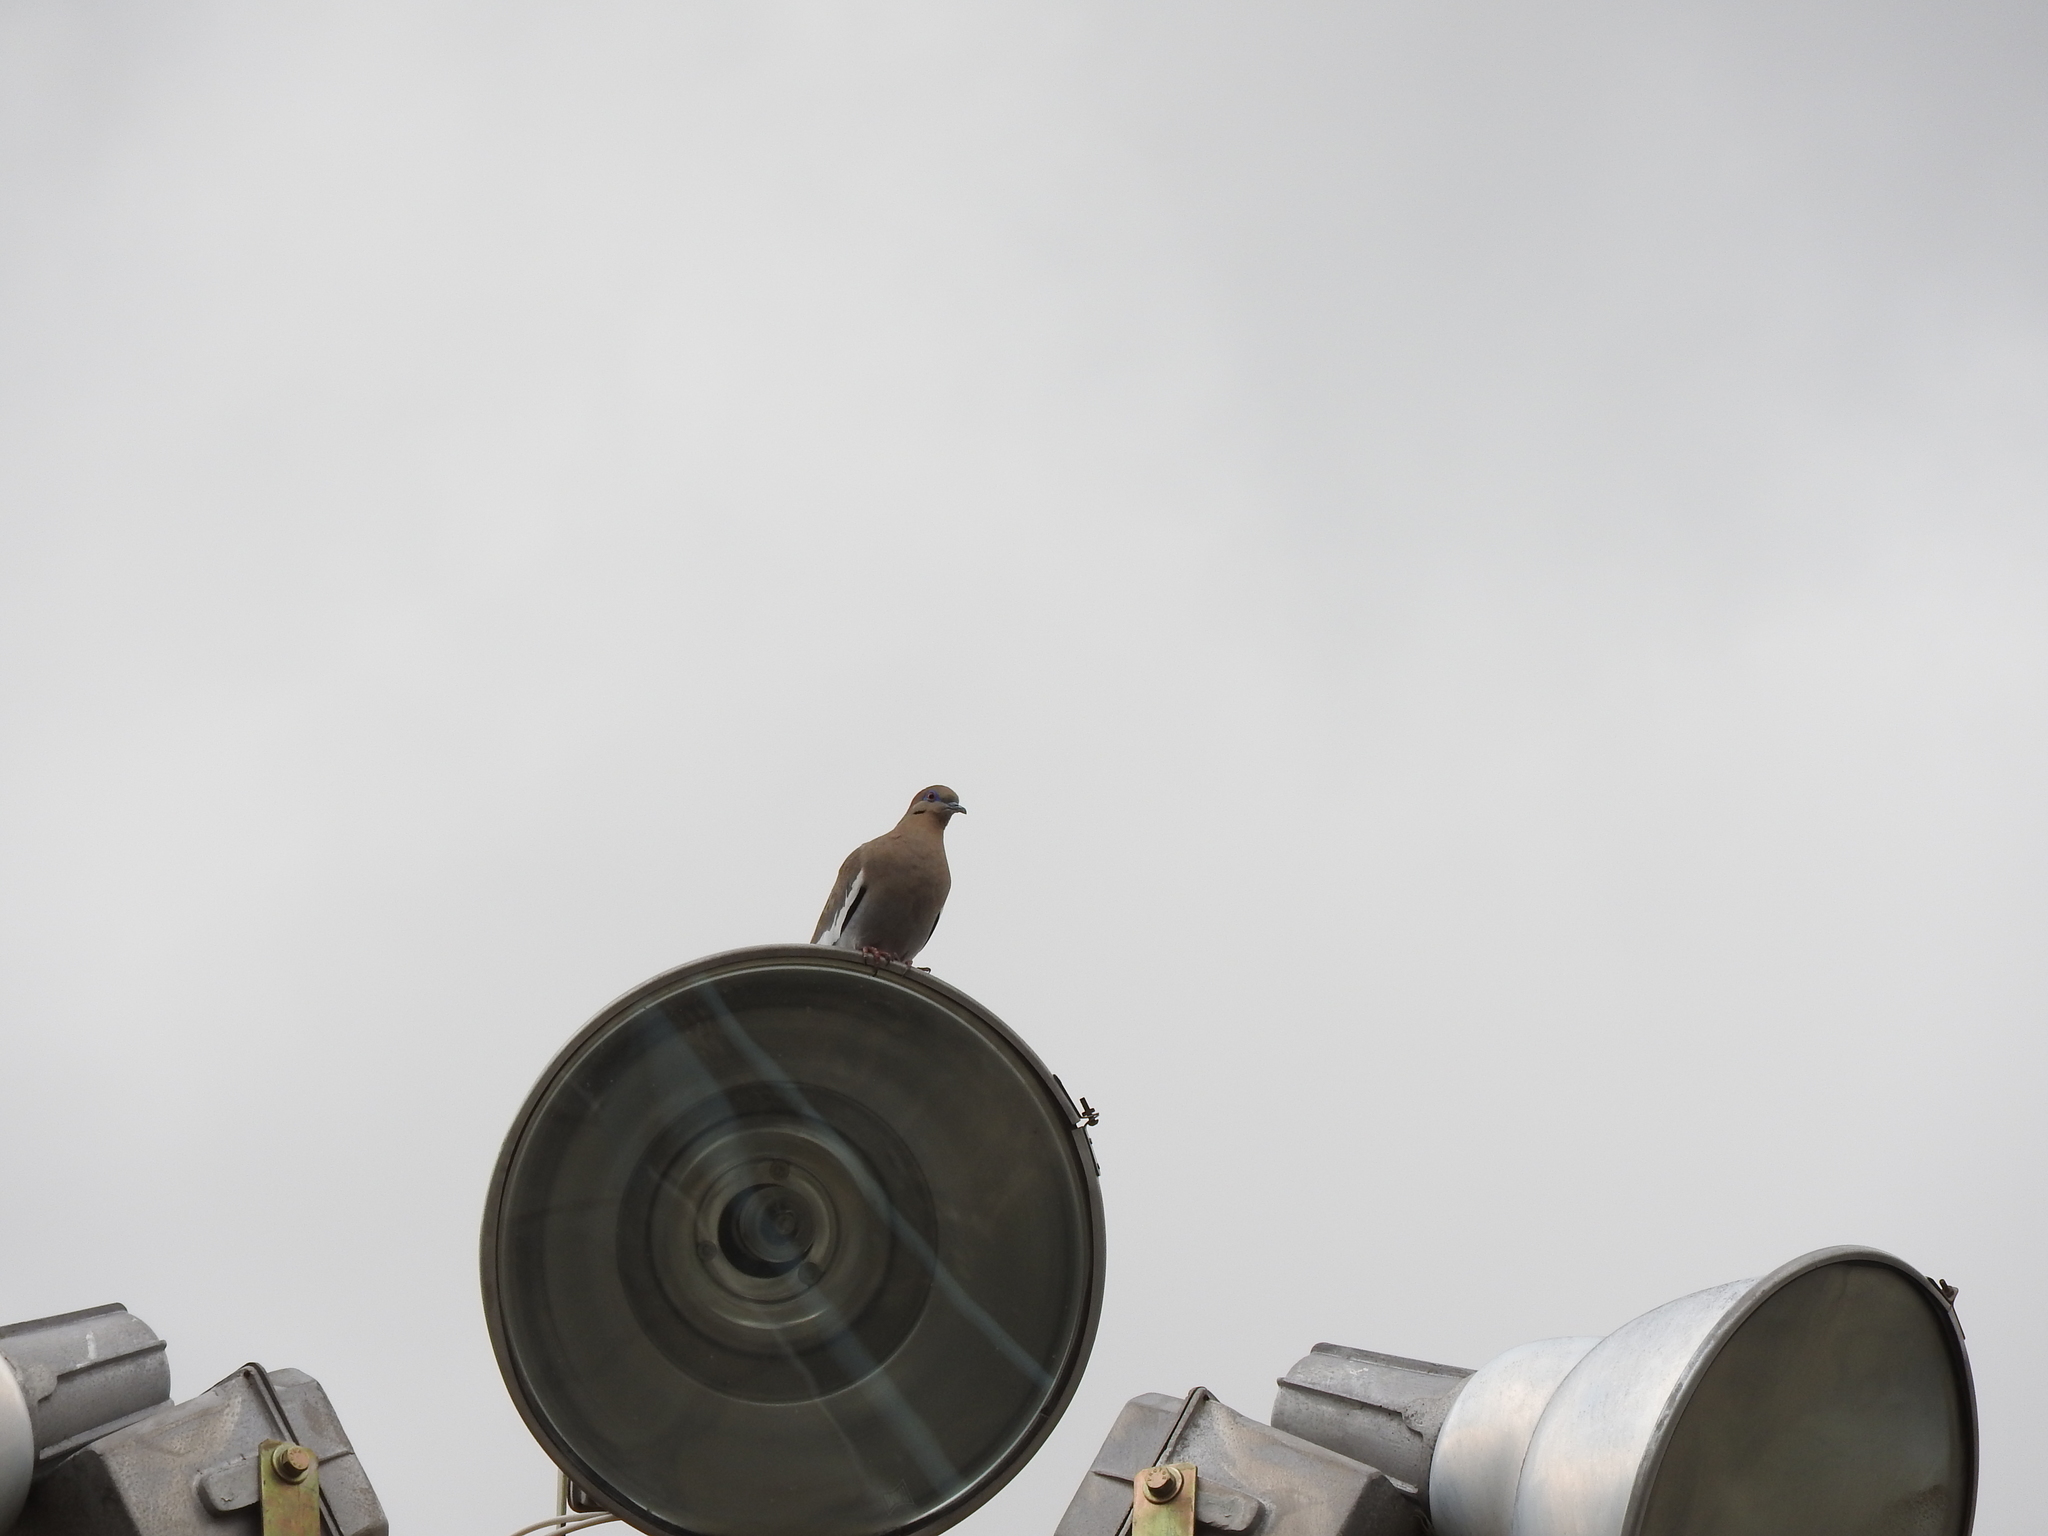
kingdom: Animalia
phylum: Chordata
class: Aves
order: Columbiformes
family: Columbidae
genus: Zenaida
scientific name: Zenaida asiatica
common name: White-winged dove
